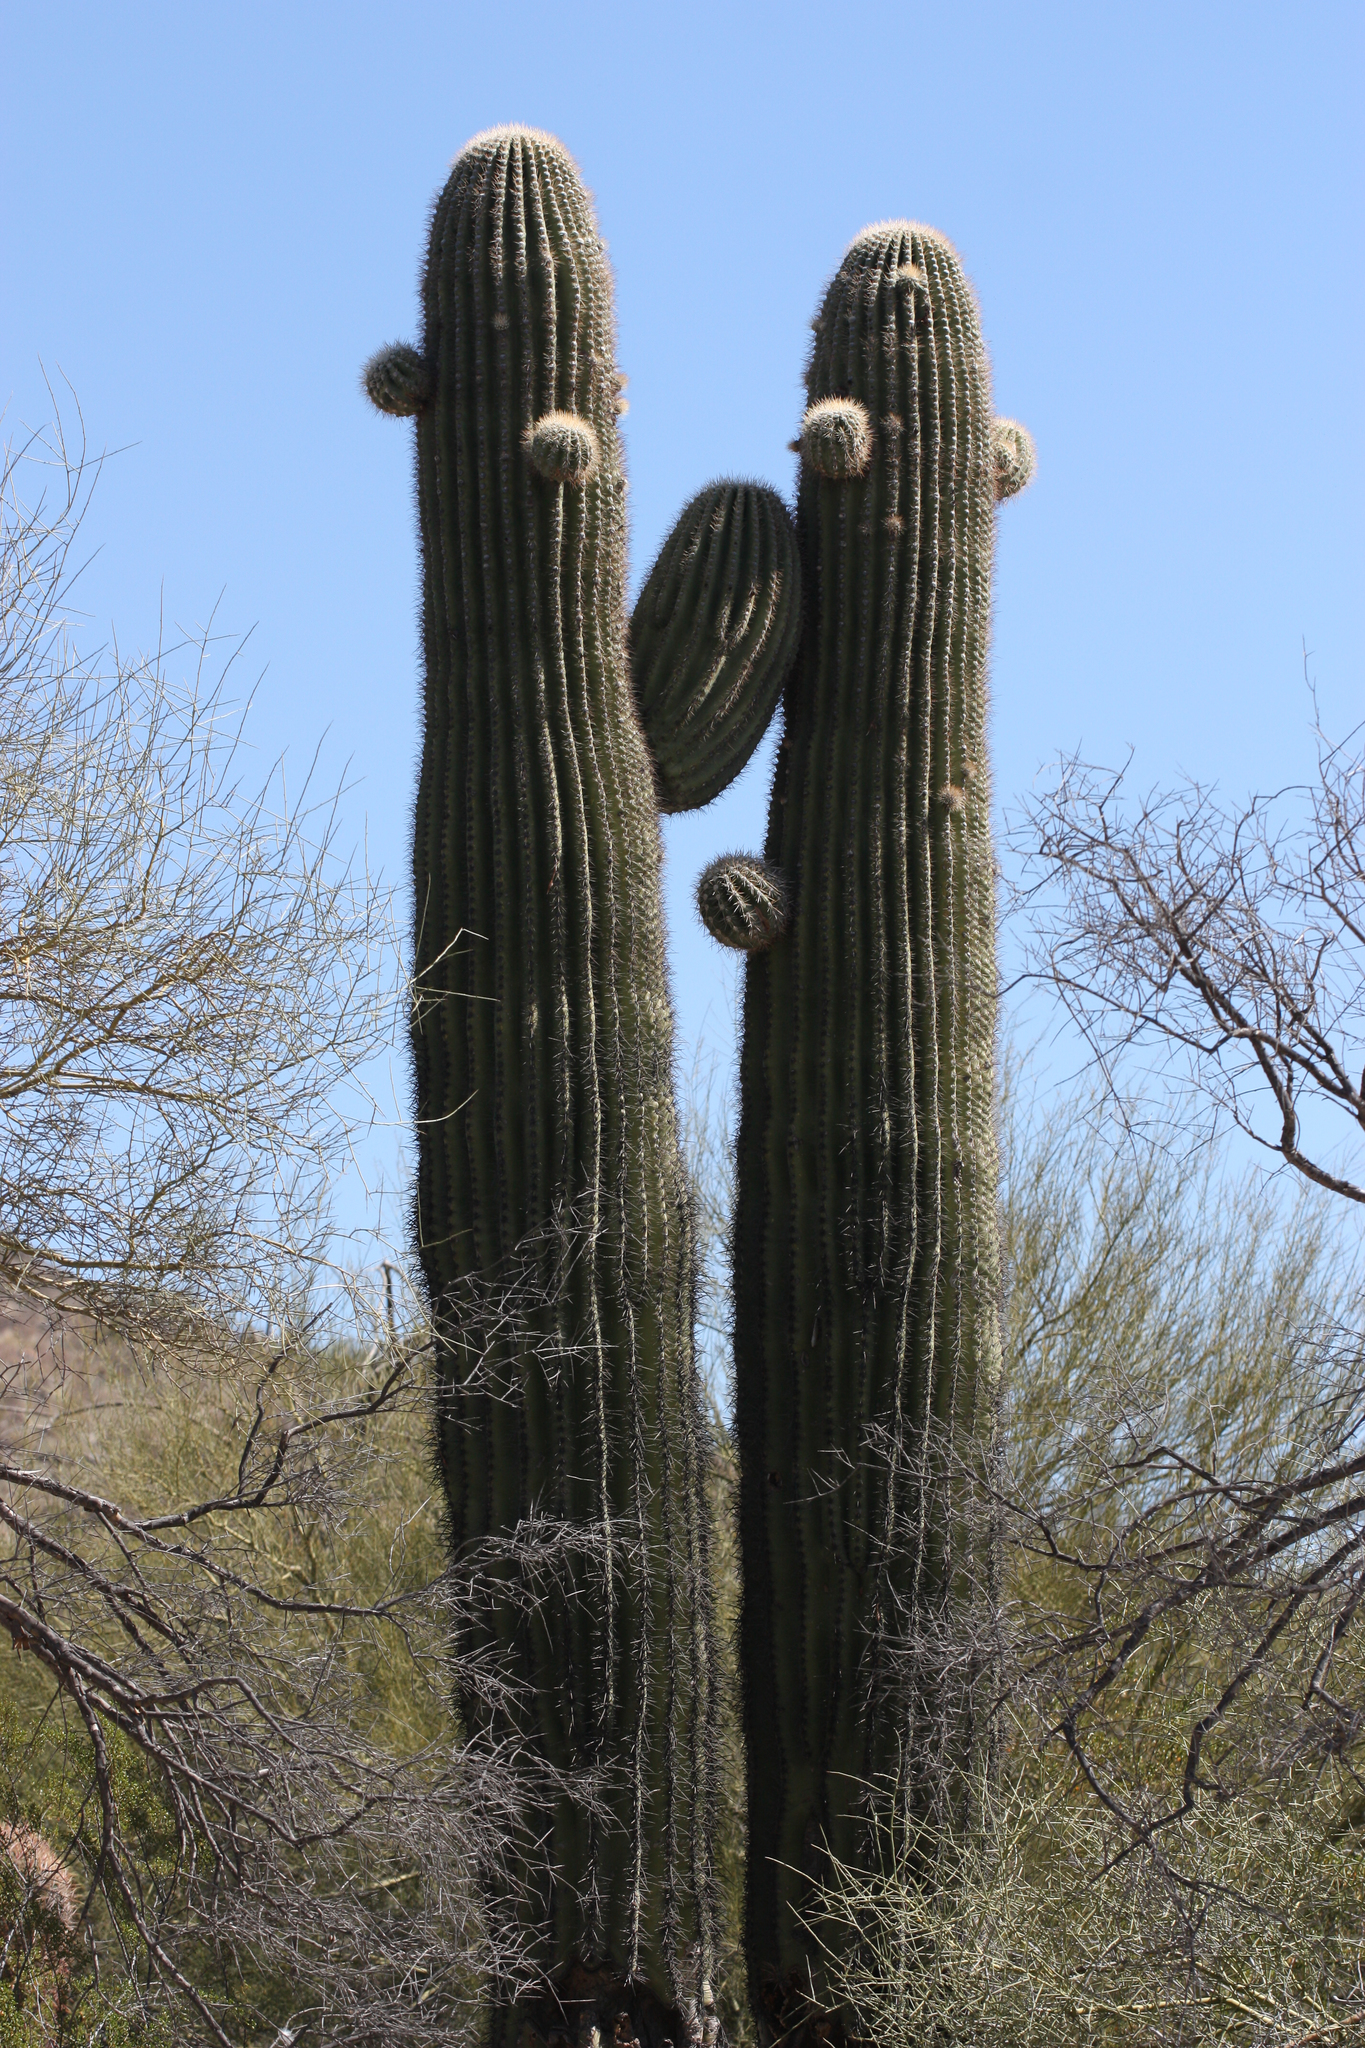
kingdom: Plantae
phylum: Tracheophyta
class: Magnoliopsida
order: Caryophyllales
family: Cactaceae
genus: Carnegiea
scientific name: Carnegiea gigantea
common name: Saguaro
